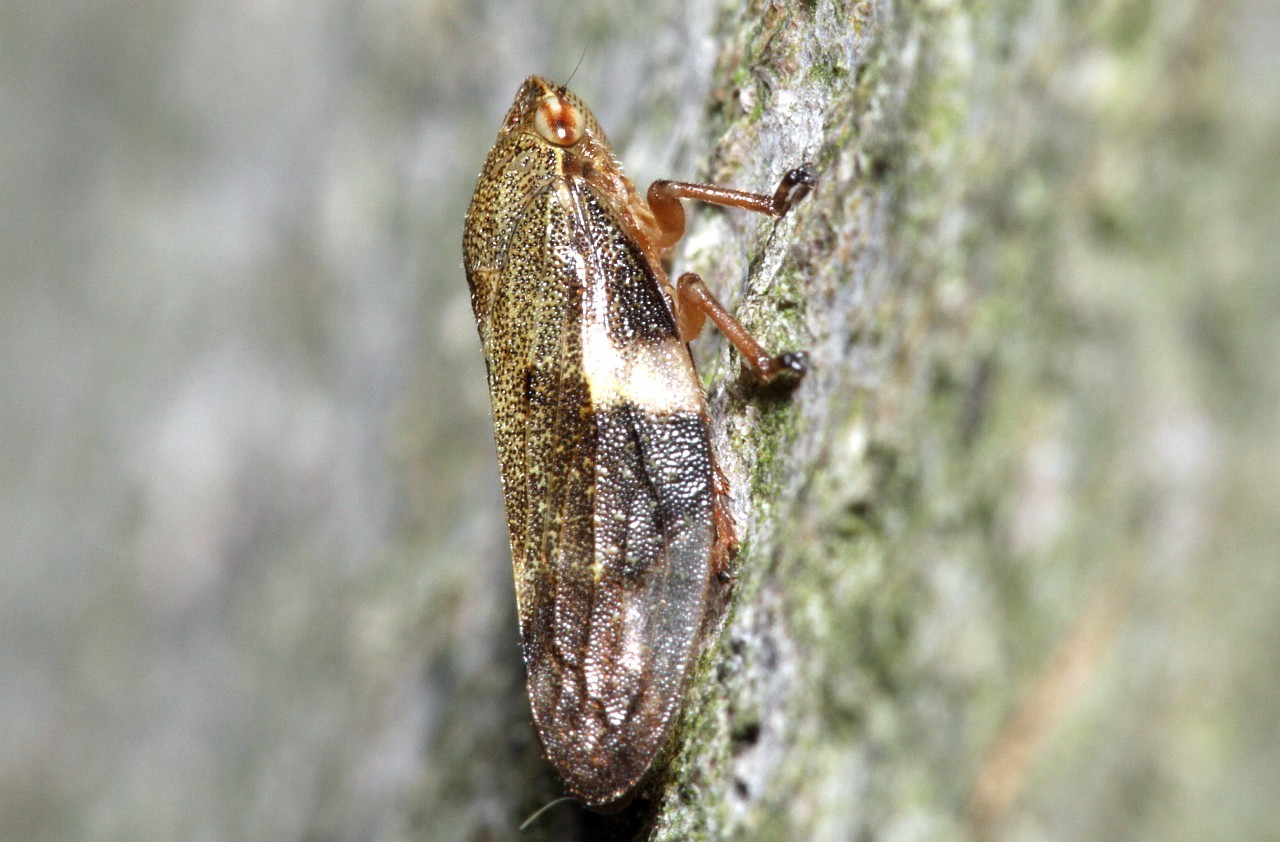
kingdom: Animalia
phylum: Arthropoda
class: Insecta
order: Hemiptera
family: Aphrophoridae
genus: Aphrophora
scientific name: Aphrophora alni
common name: European alder spittlebug
